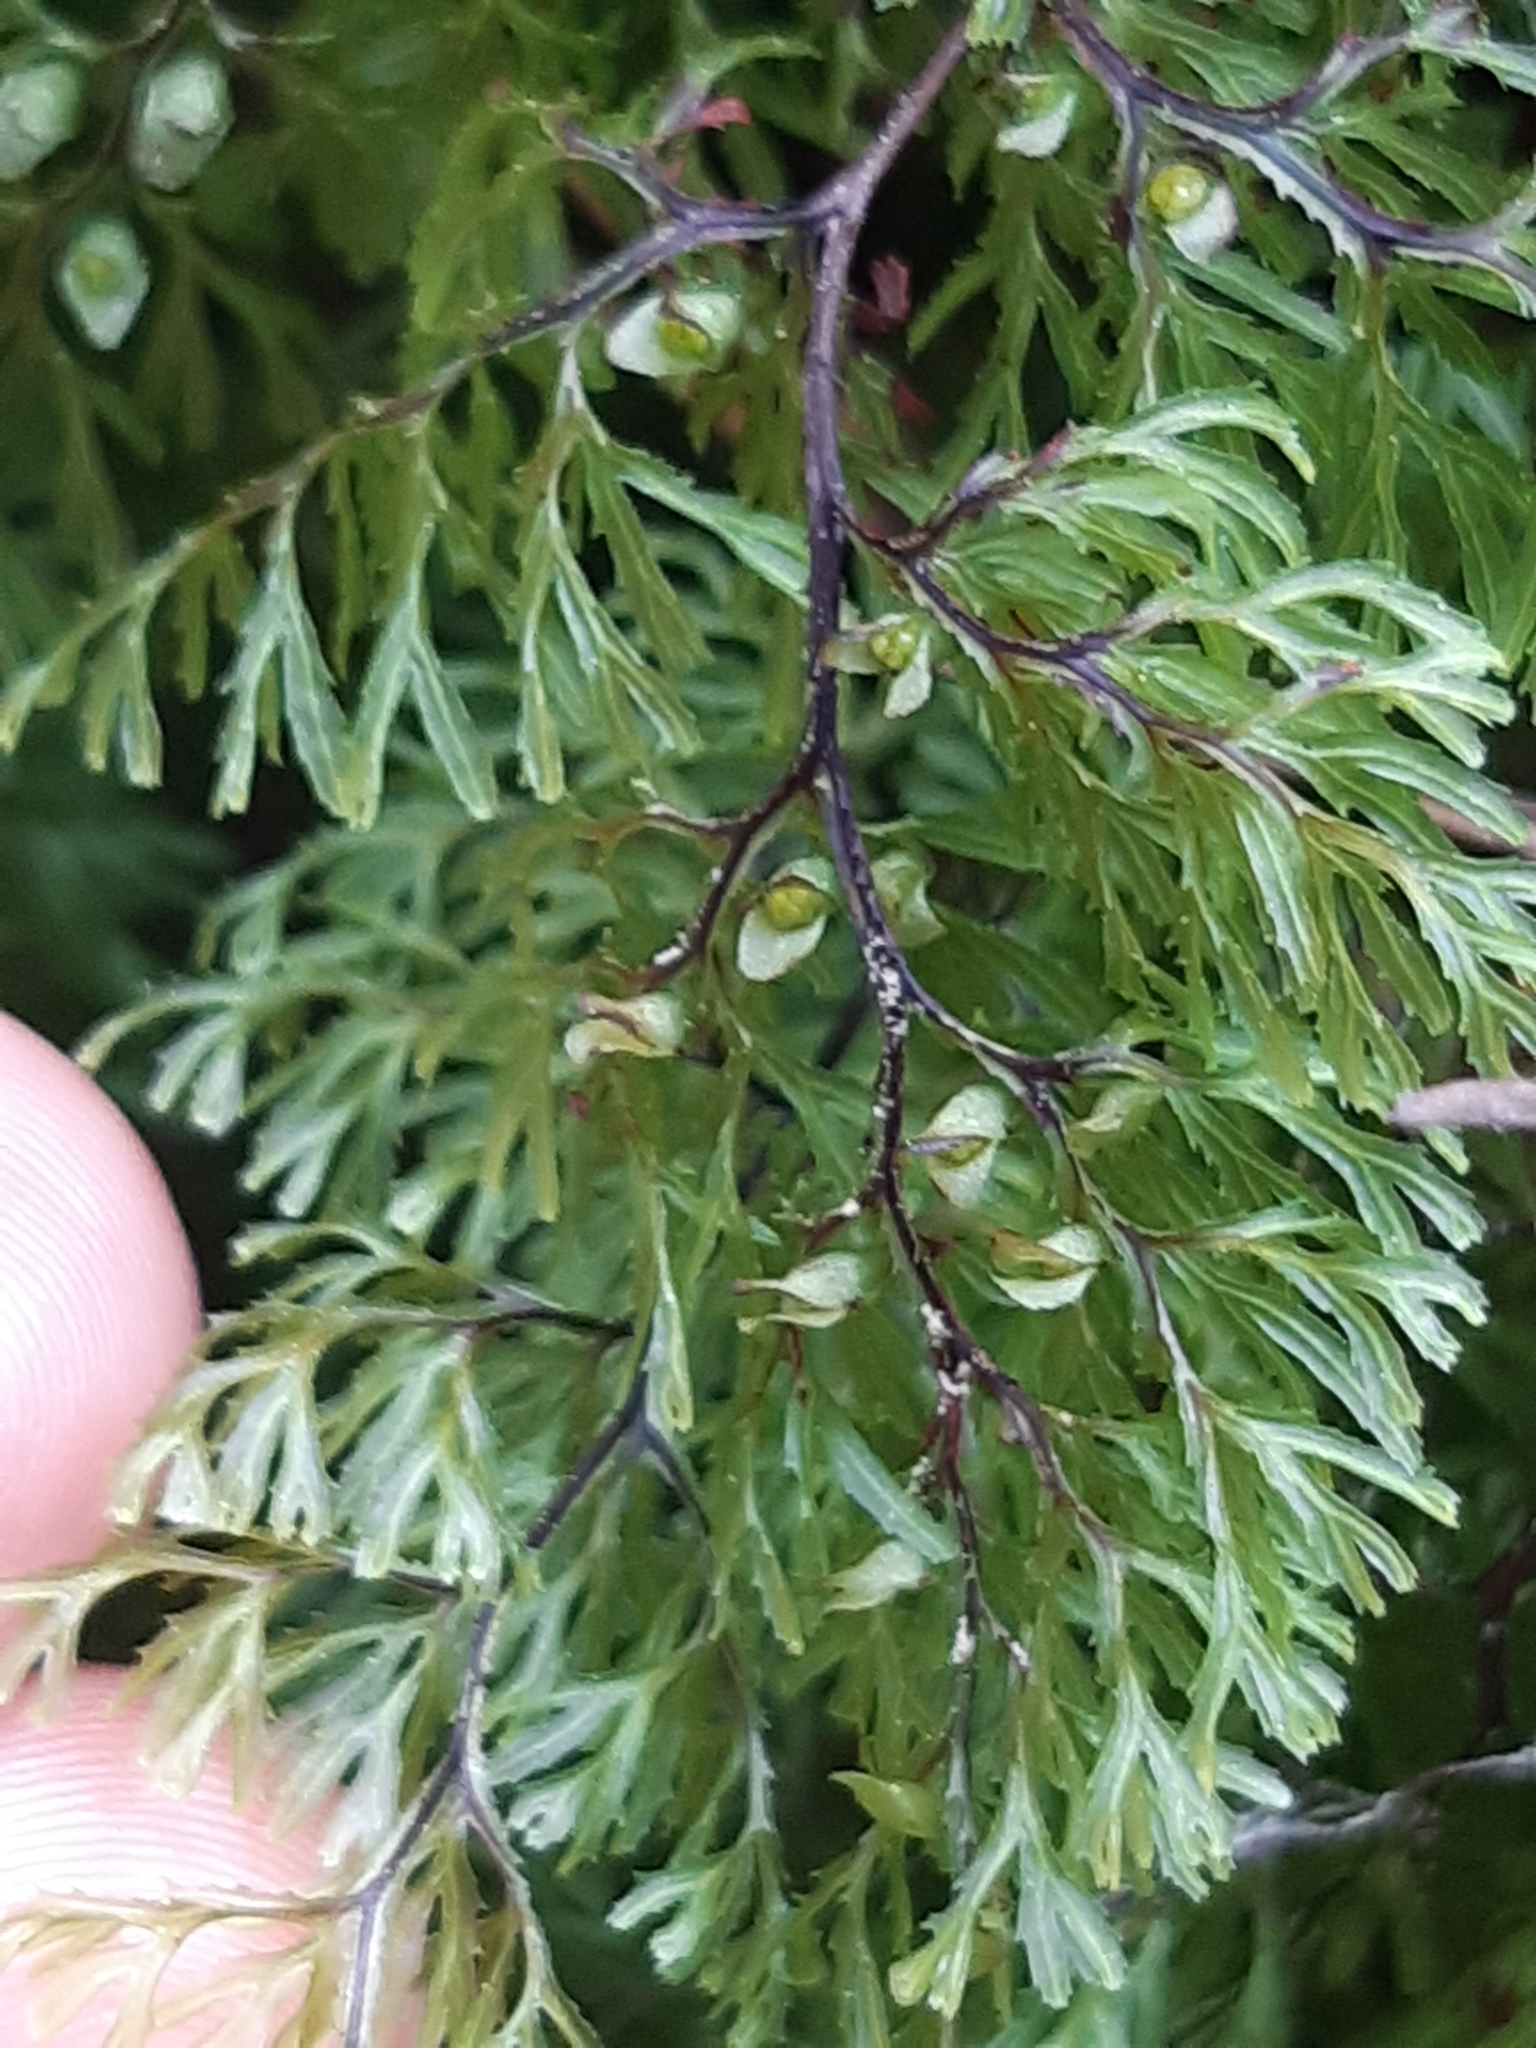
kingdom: Plantae
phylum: Tracheophyta
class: Polypodiopsida
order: Hymenophyllales
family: Hymenophyllaceae
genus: Hymenophyllum
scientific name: Hymenophyllum multifidum
